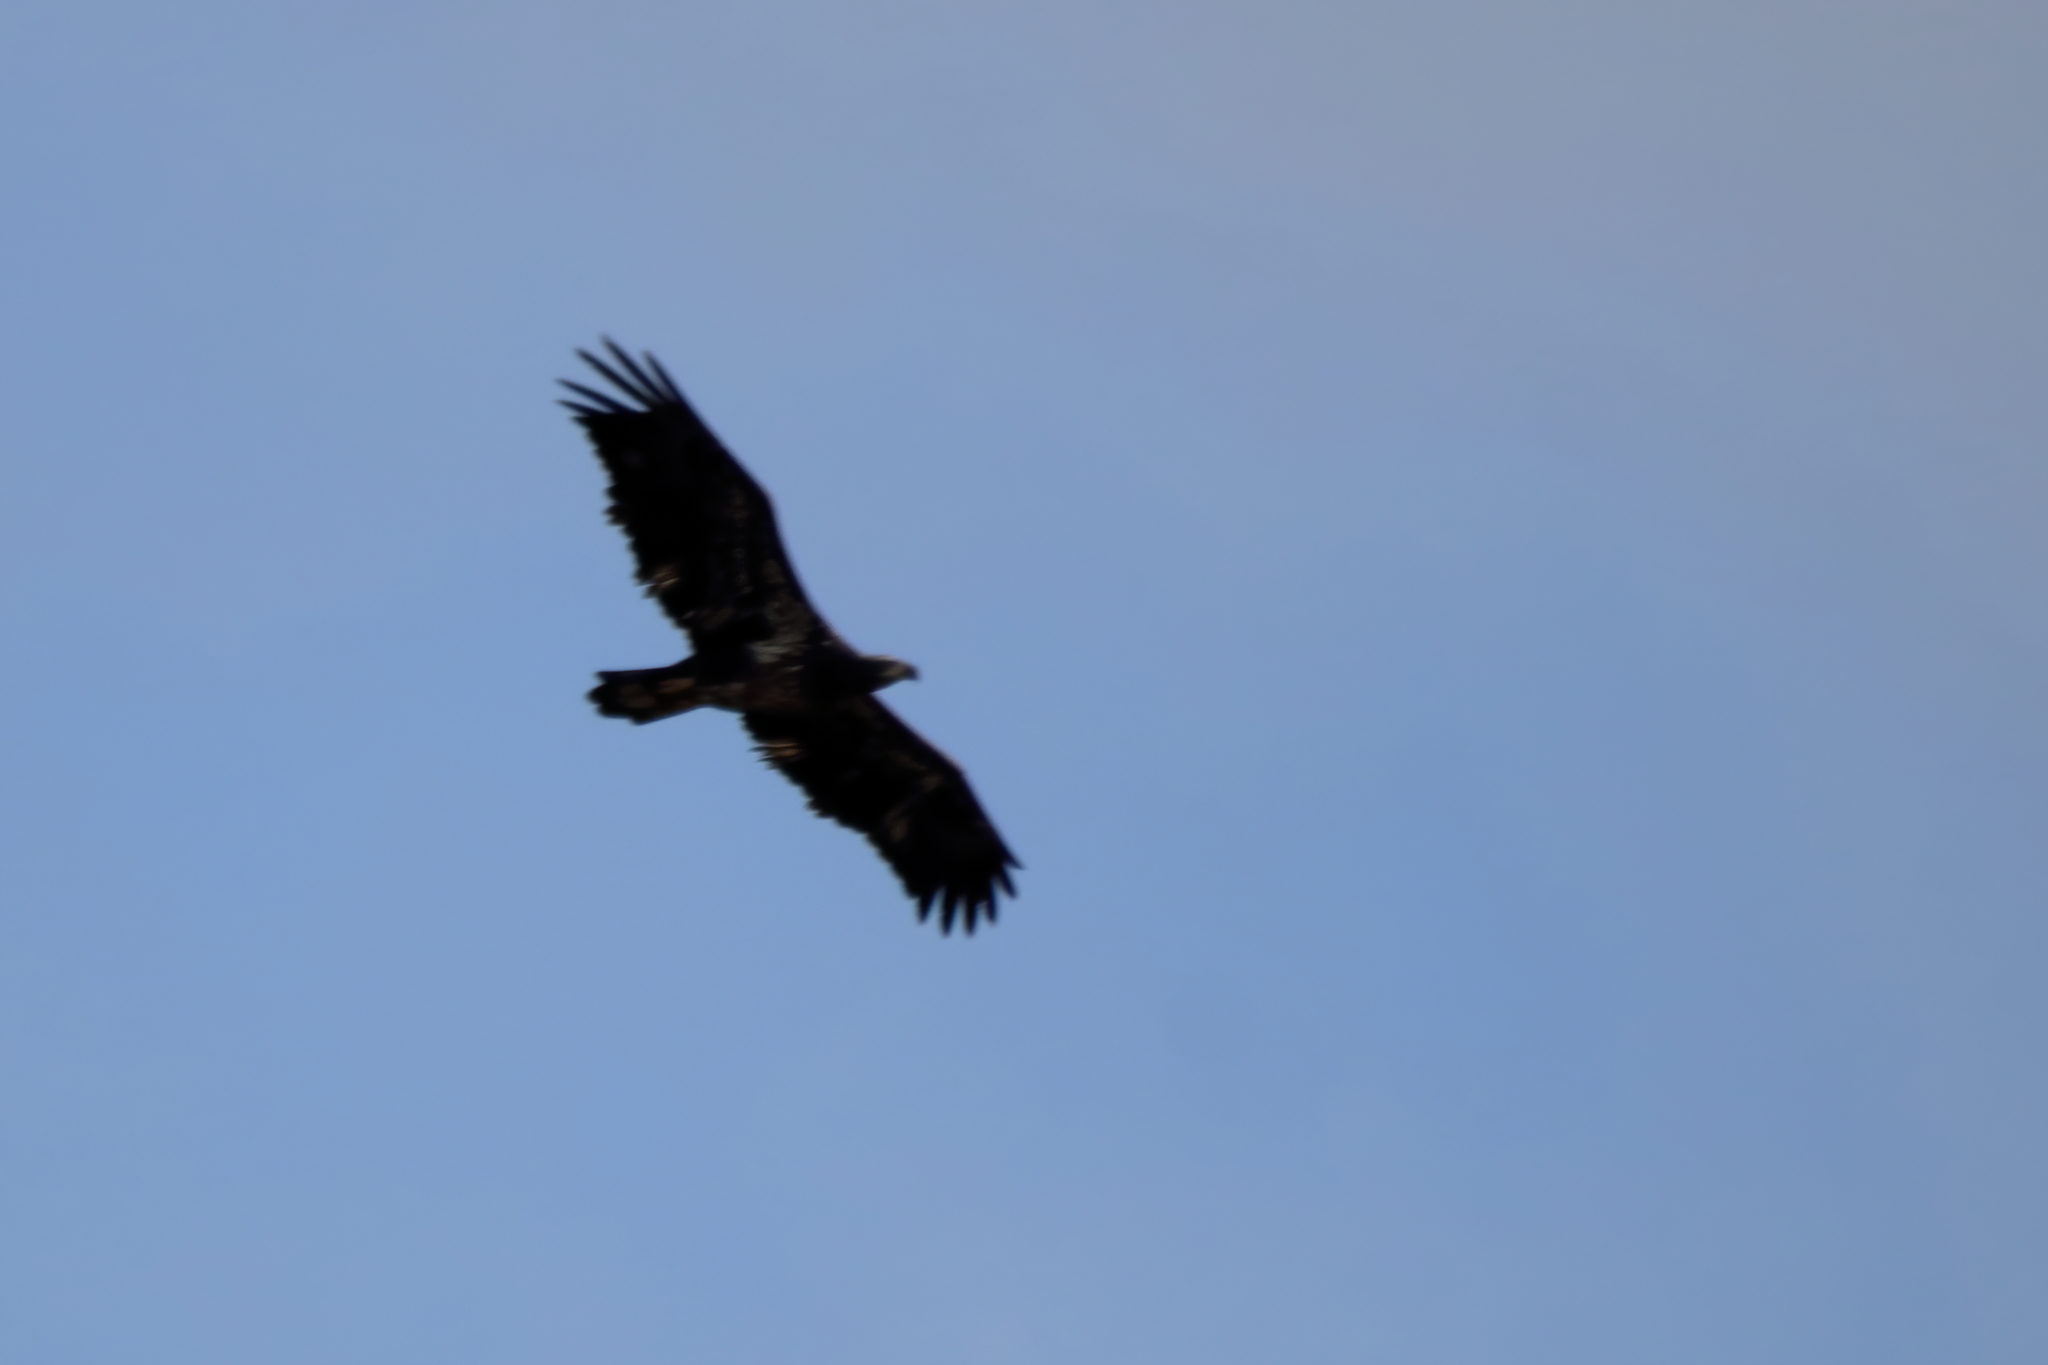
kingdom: Animalia
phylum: Chordata
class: Aves
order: Accipitriformes
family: Accipitridae
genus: Haliaeetus
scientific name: Haliaeetus leucocephalus
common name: Bald eagle
